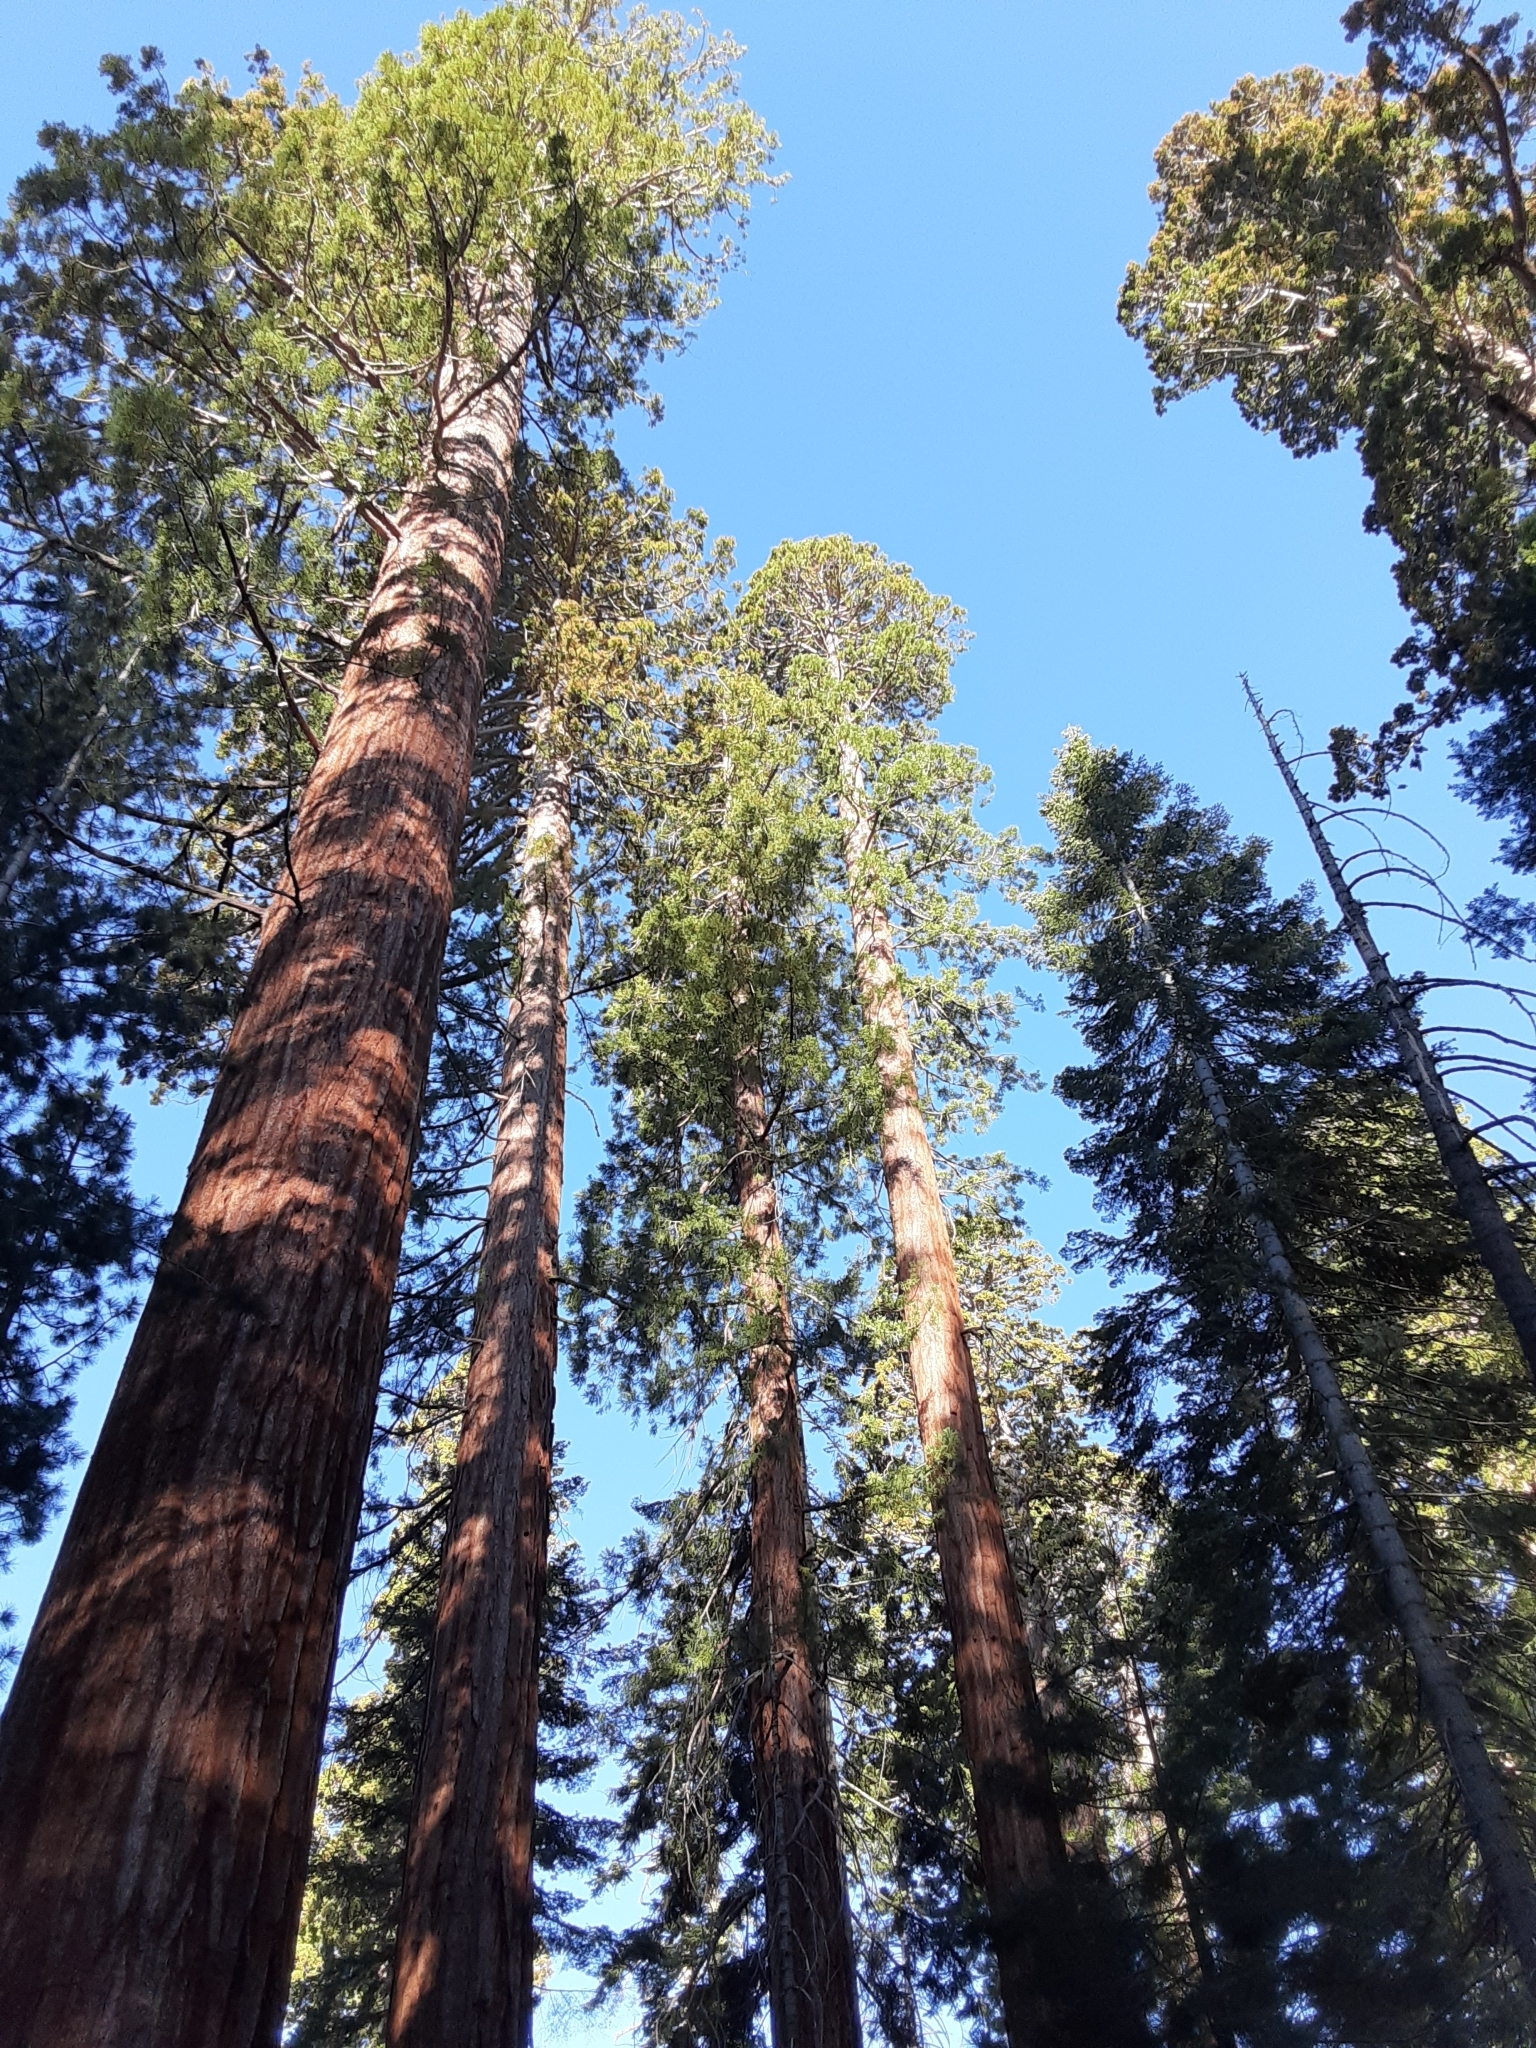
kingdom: Plantae
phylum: Tracheophyta
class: Pinopsida
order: Pinales
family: Cupressaceae
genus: Sequoiadendron
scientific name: Sequoiadendron giganteum
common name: Wellingtonia
